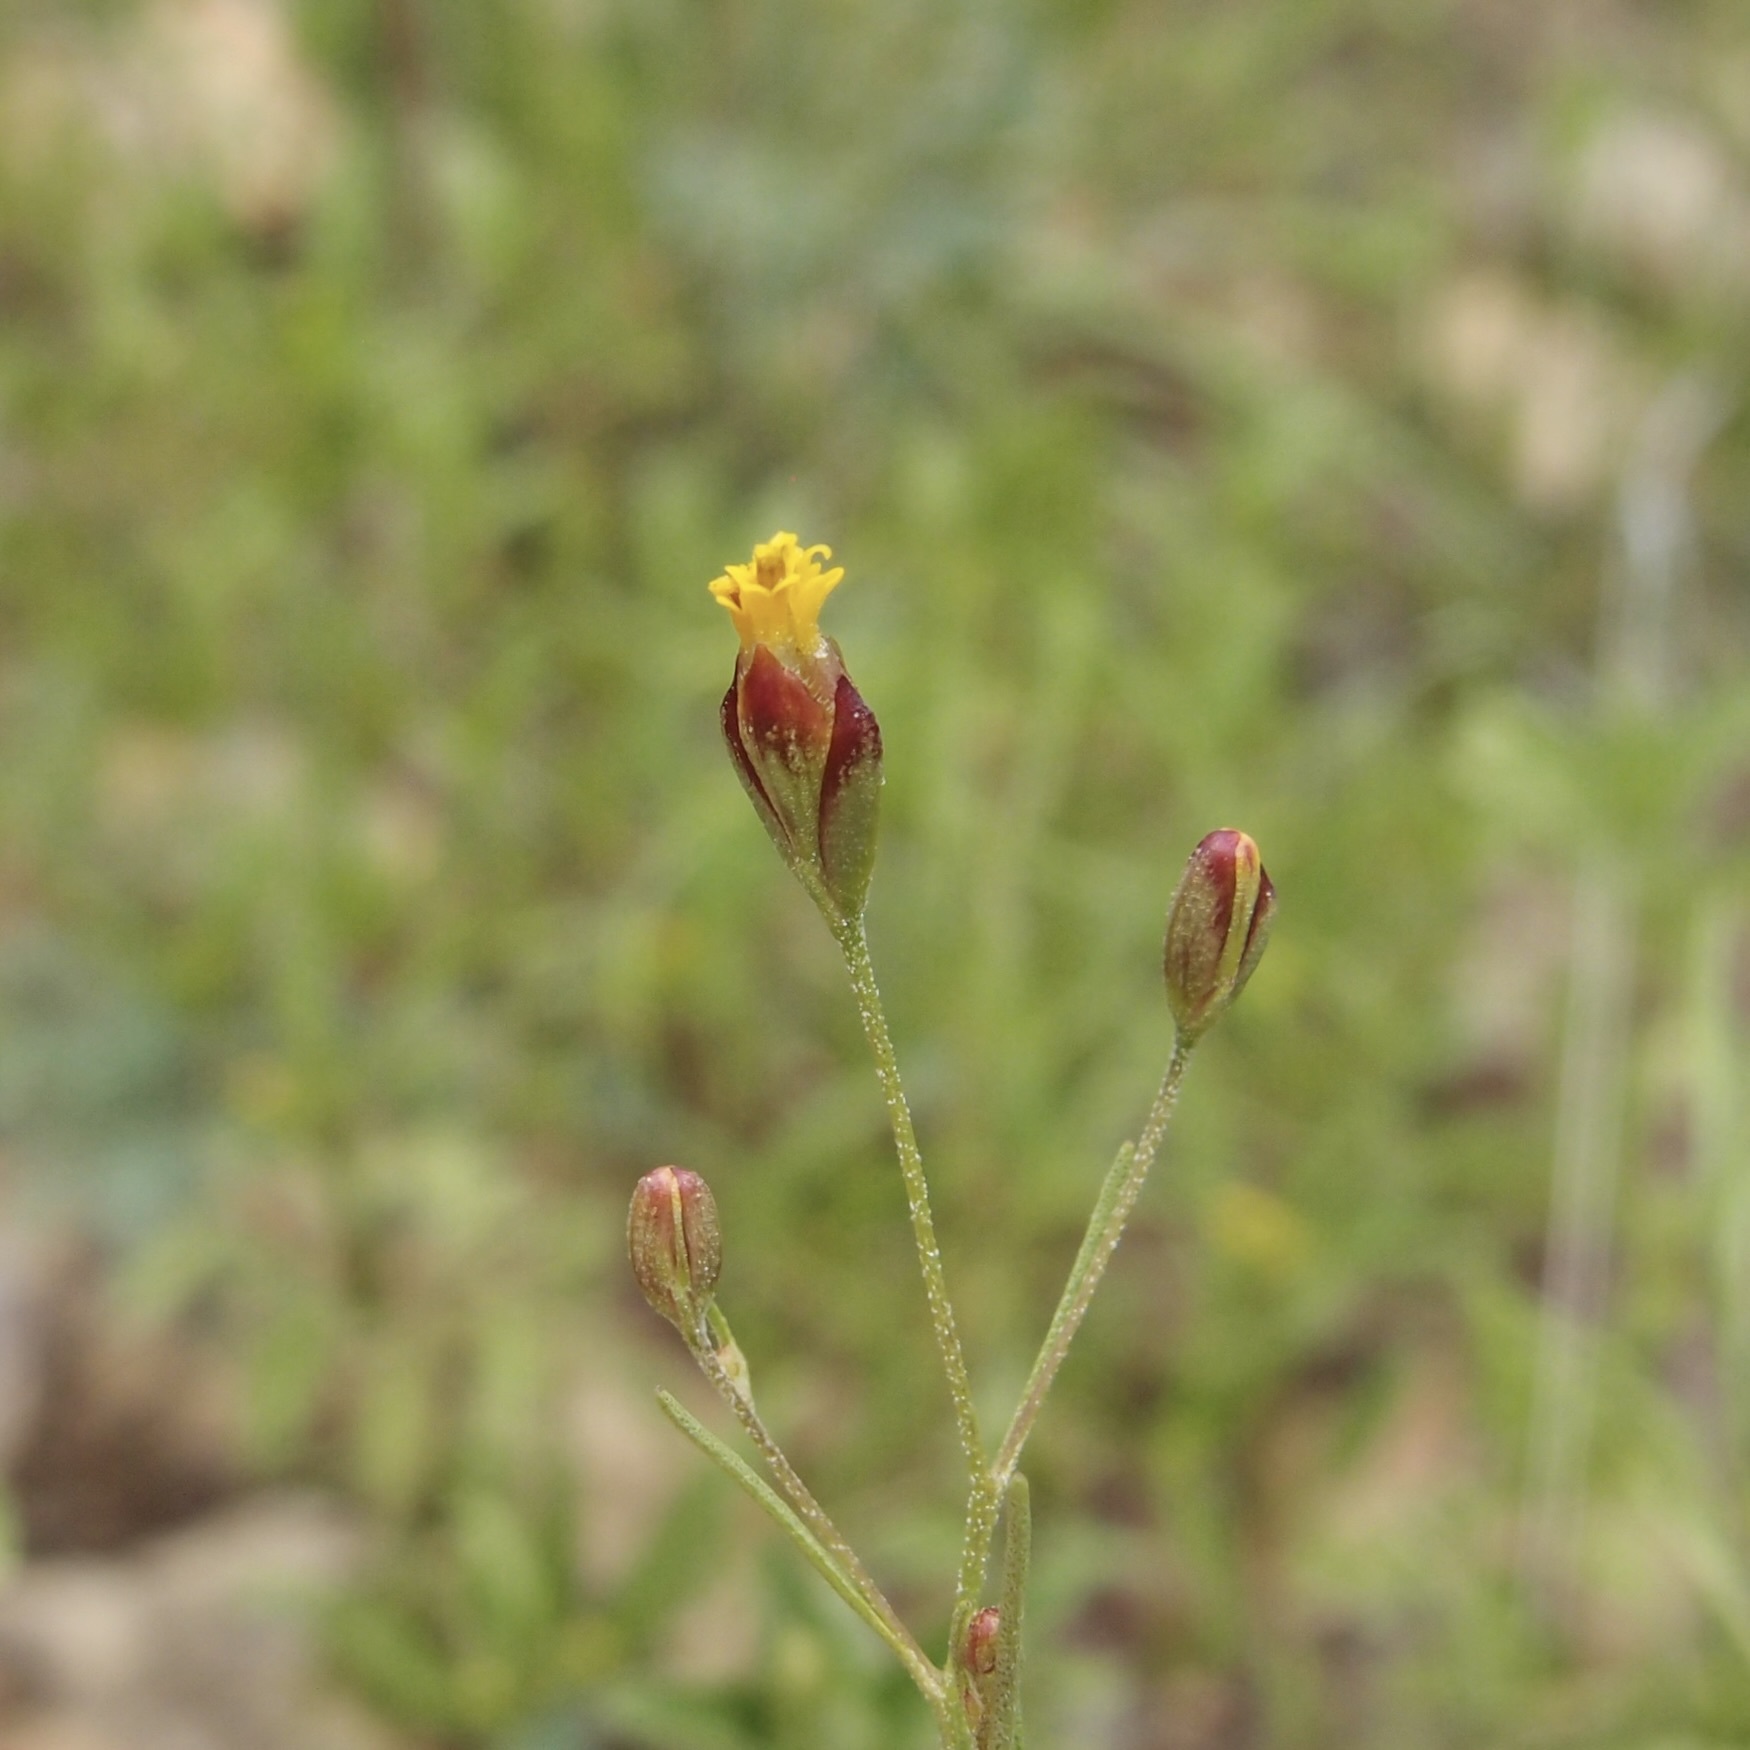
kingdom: Plantae
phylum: Tracheophyta
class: Magnoliopsida
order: Asterales
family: Asteraceae
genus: Schkuhria
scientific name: Schkuhria pinnata
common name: Dwarf marigold
